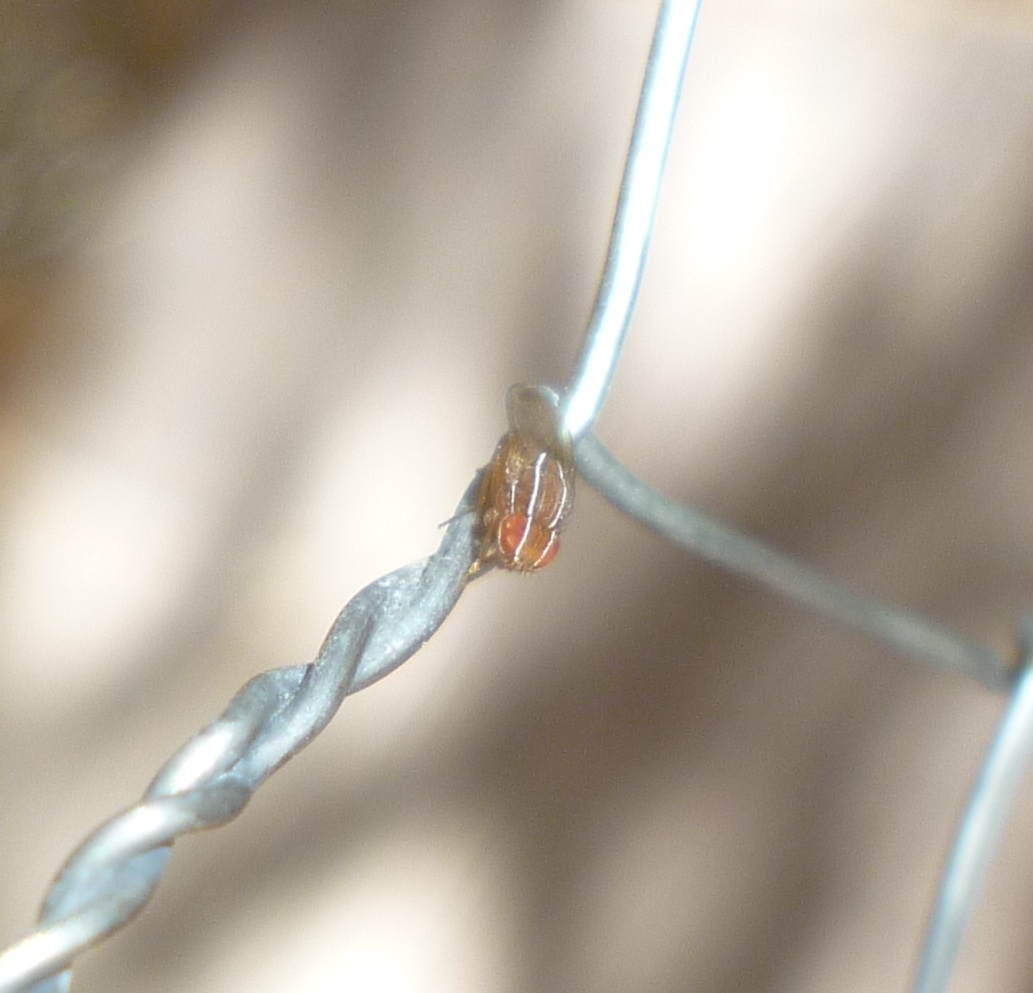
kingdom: Animalia
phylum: Arthropoda
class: Insecta
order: Diptera
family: Drosophilidae
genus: Zaprionus
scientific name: Zaprionus indianus
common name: African fig fly
